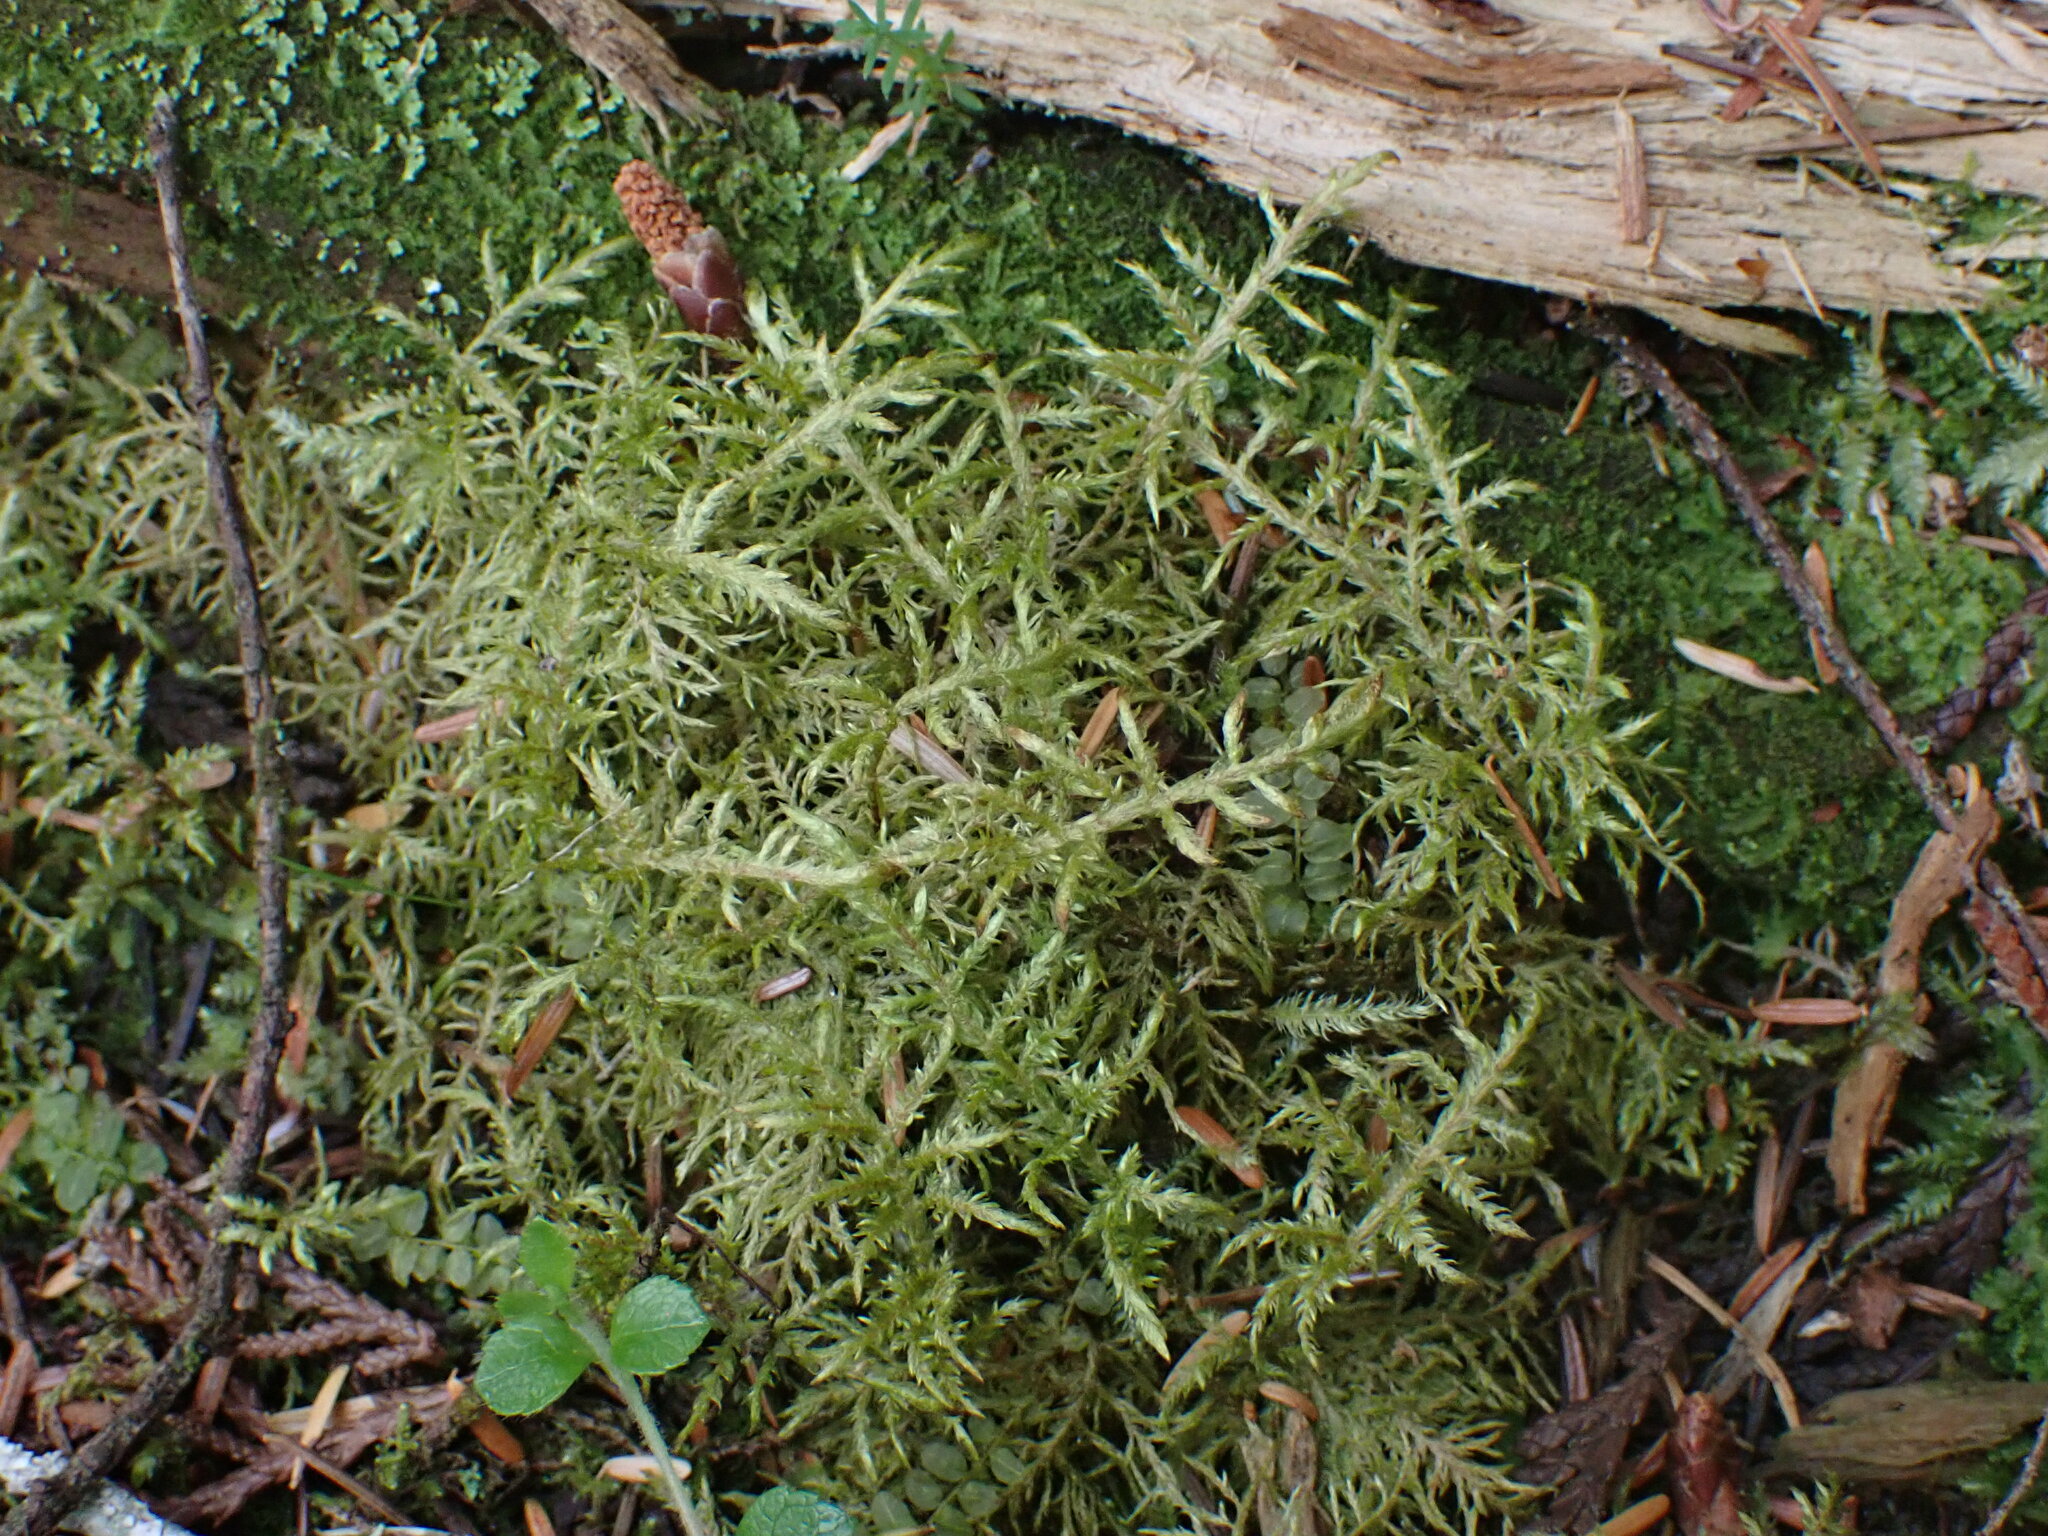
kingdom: Plantae
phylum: Bryophyta
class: Bryopsida
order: Hypnales
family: Hylocomiaceae
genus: Hylocomium
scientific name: Hylocomium splendens
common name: Stairstep moss
